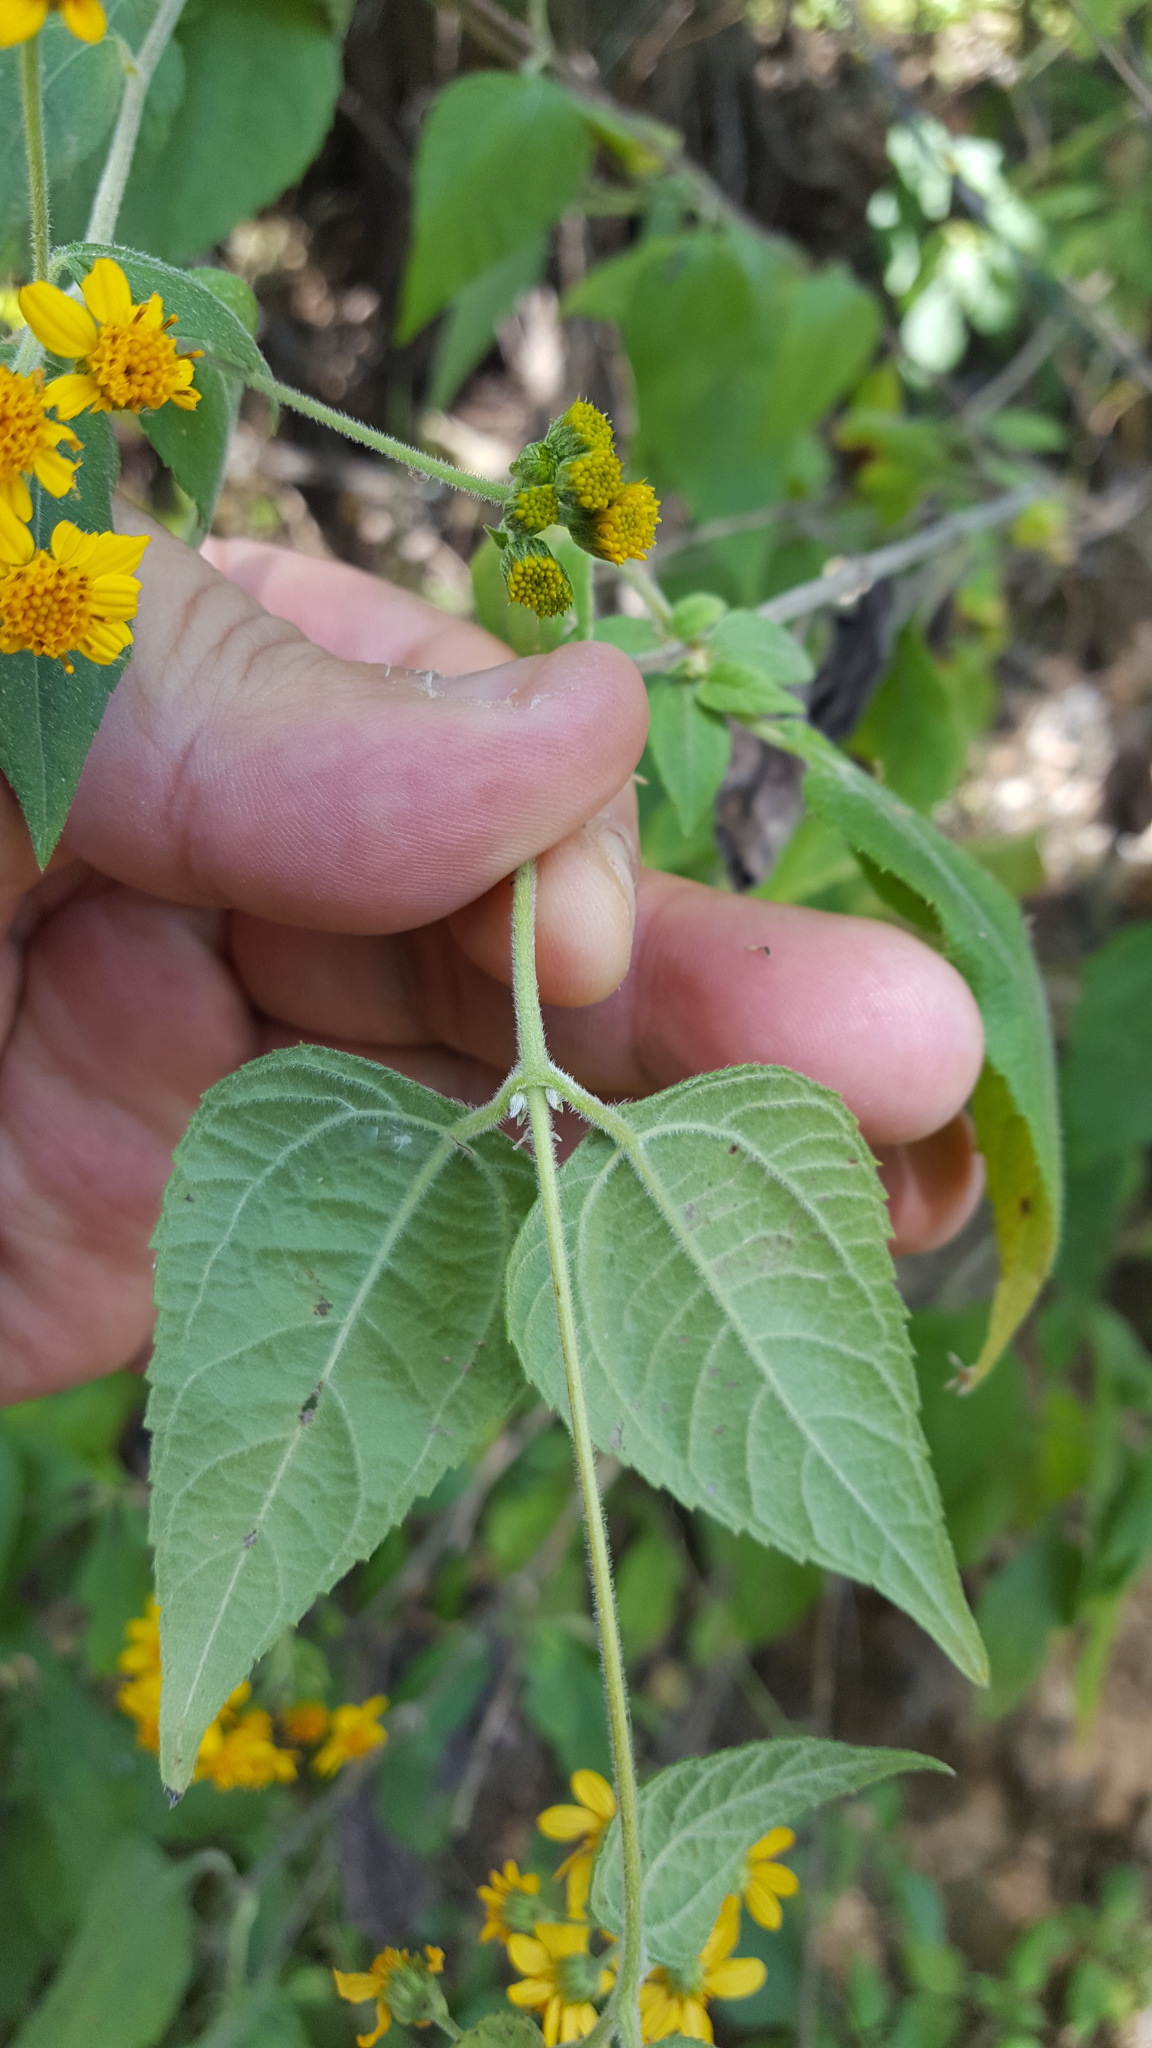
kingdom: Plantae
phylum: Tracheophyta
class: Magnoliopsida
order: Asterales
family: Asteraceae
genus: Hymenostephium
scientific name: Hymenostephium cordatum
